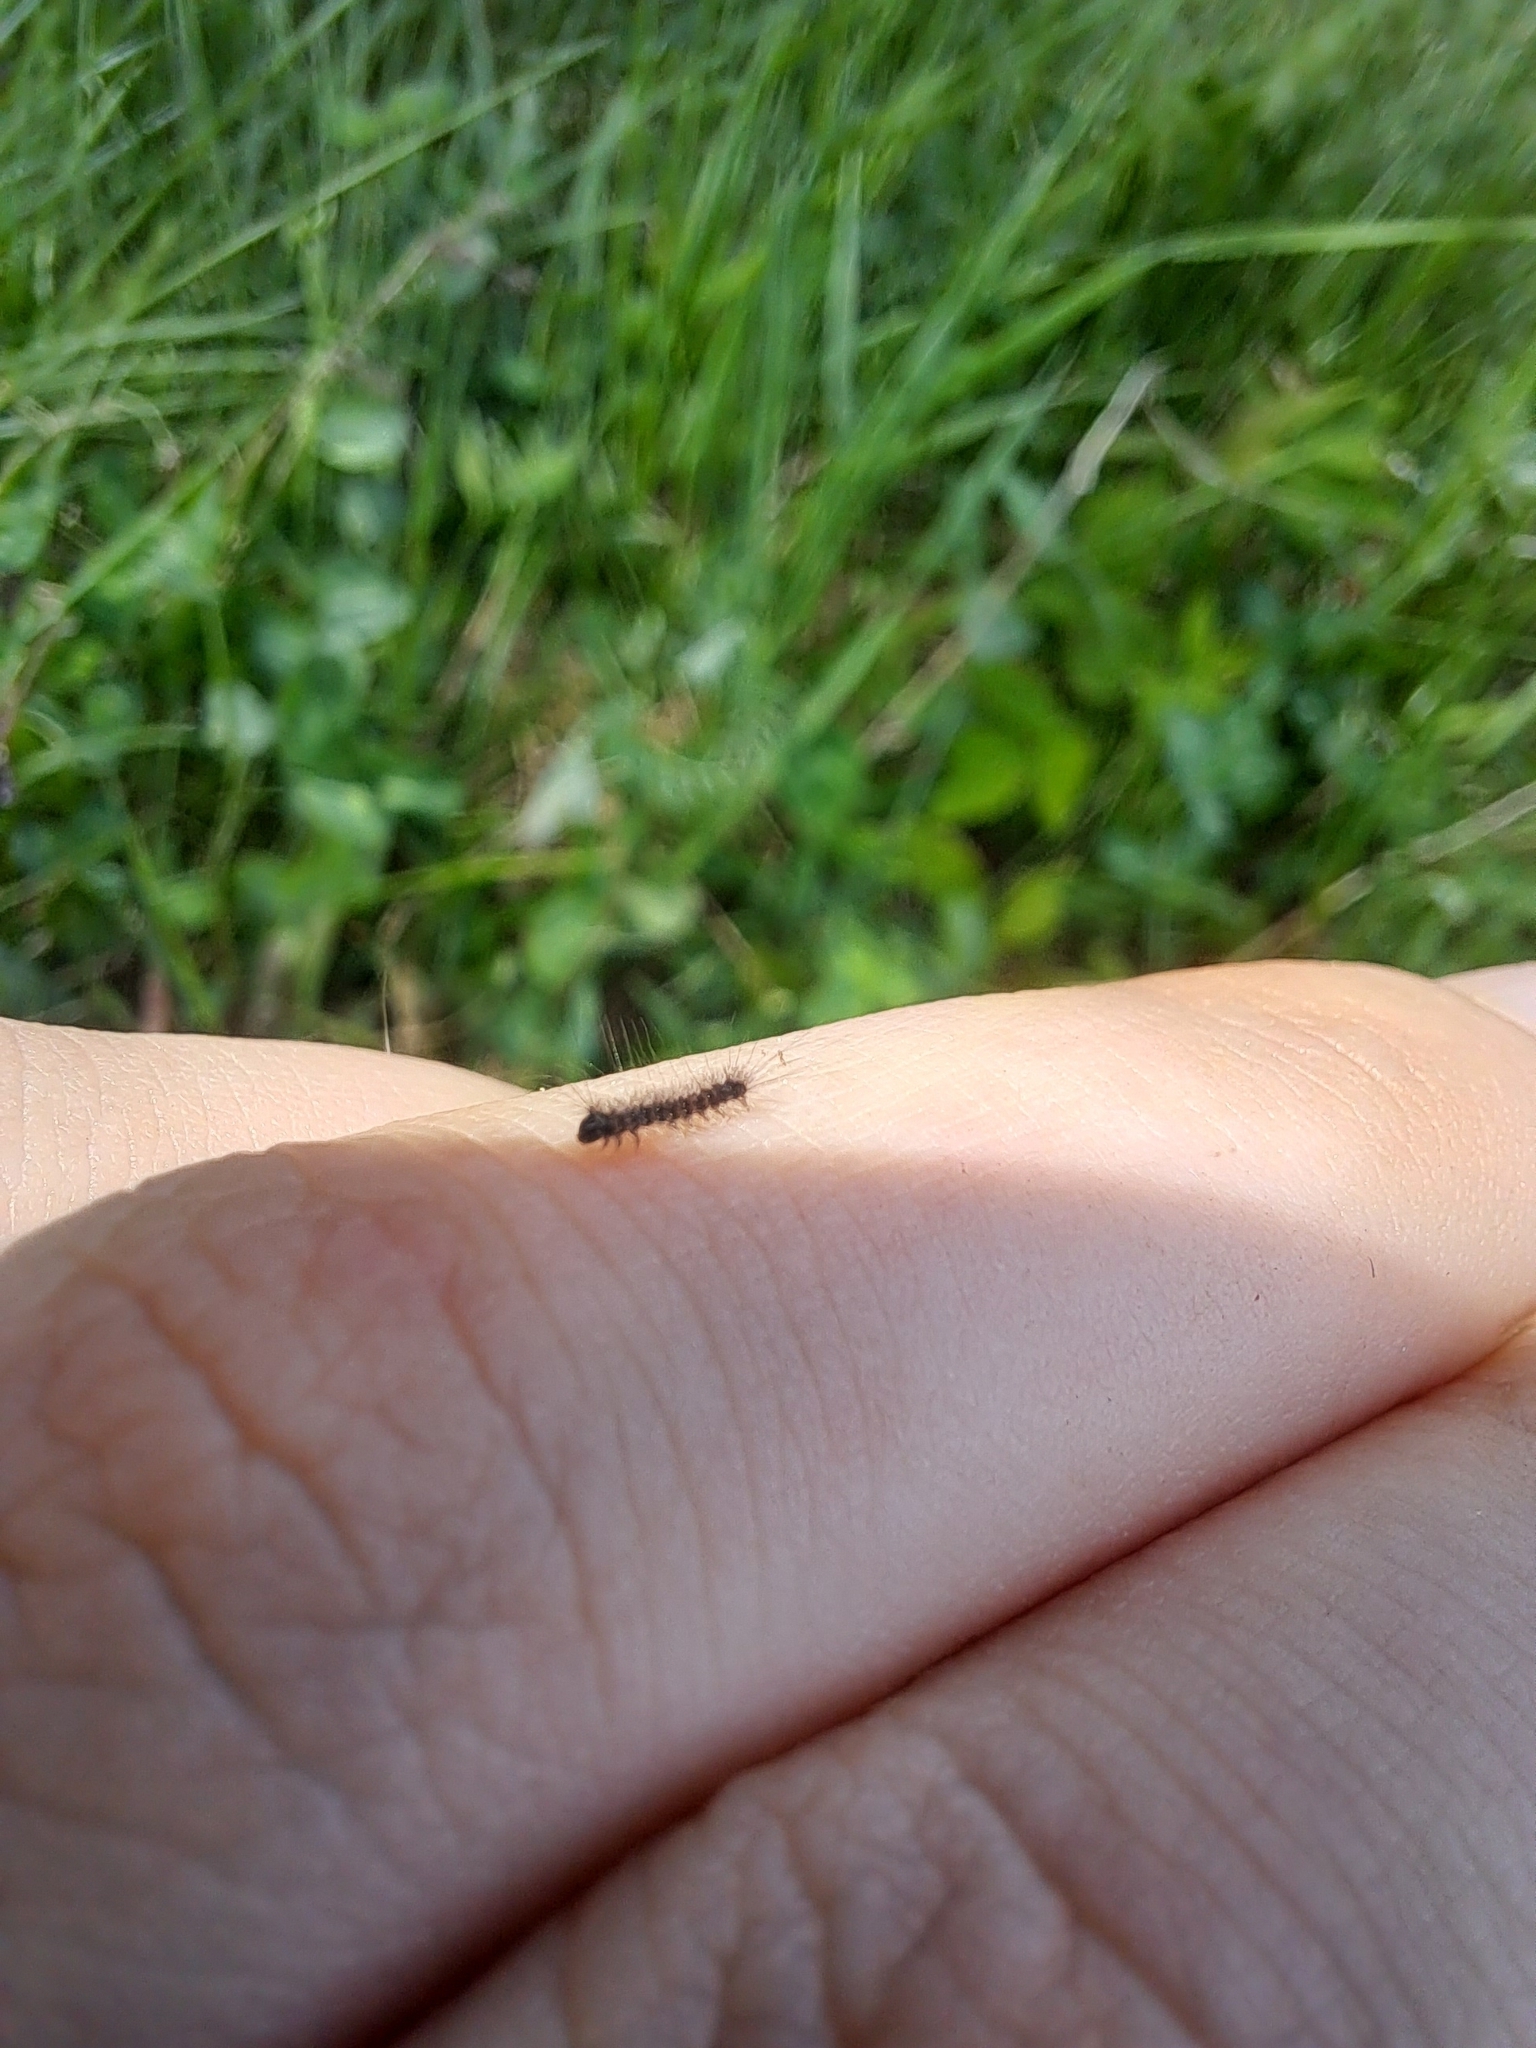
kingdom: Animalia
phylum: Arthropoda
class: Insecta
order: Lepidoptera
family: Erebidae
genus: Lymantria
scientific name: Lymantria dispar
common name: Gypsy moth
